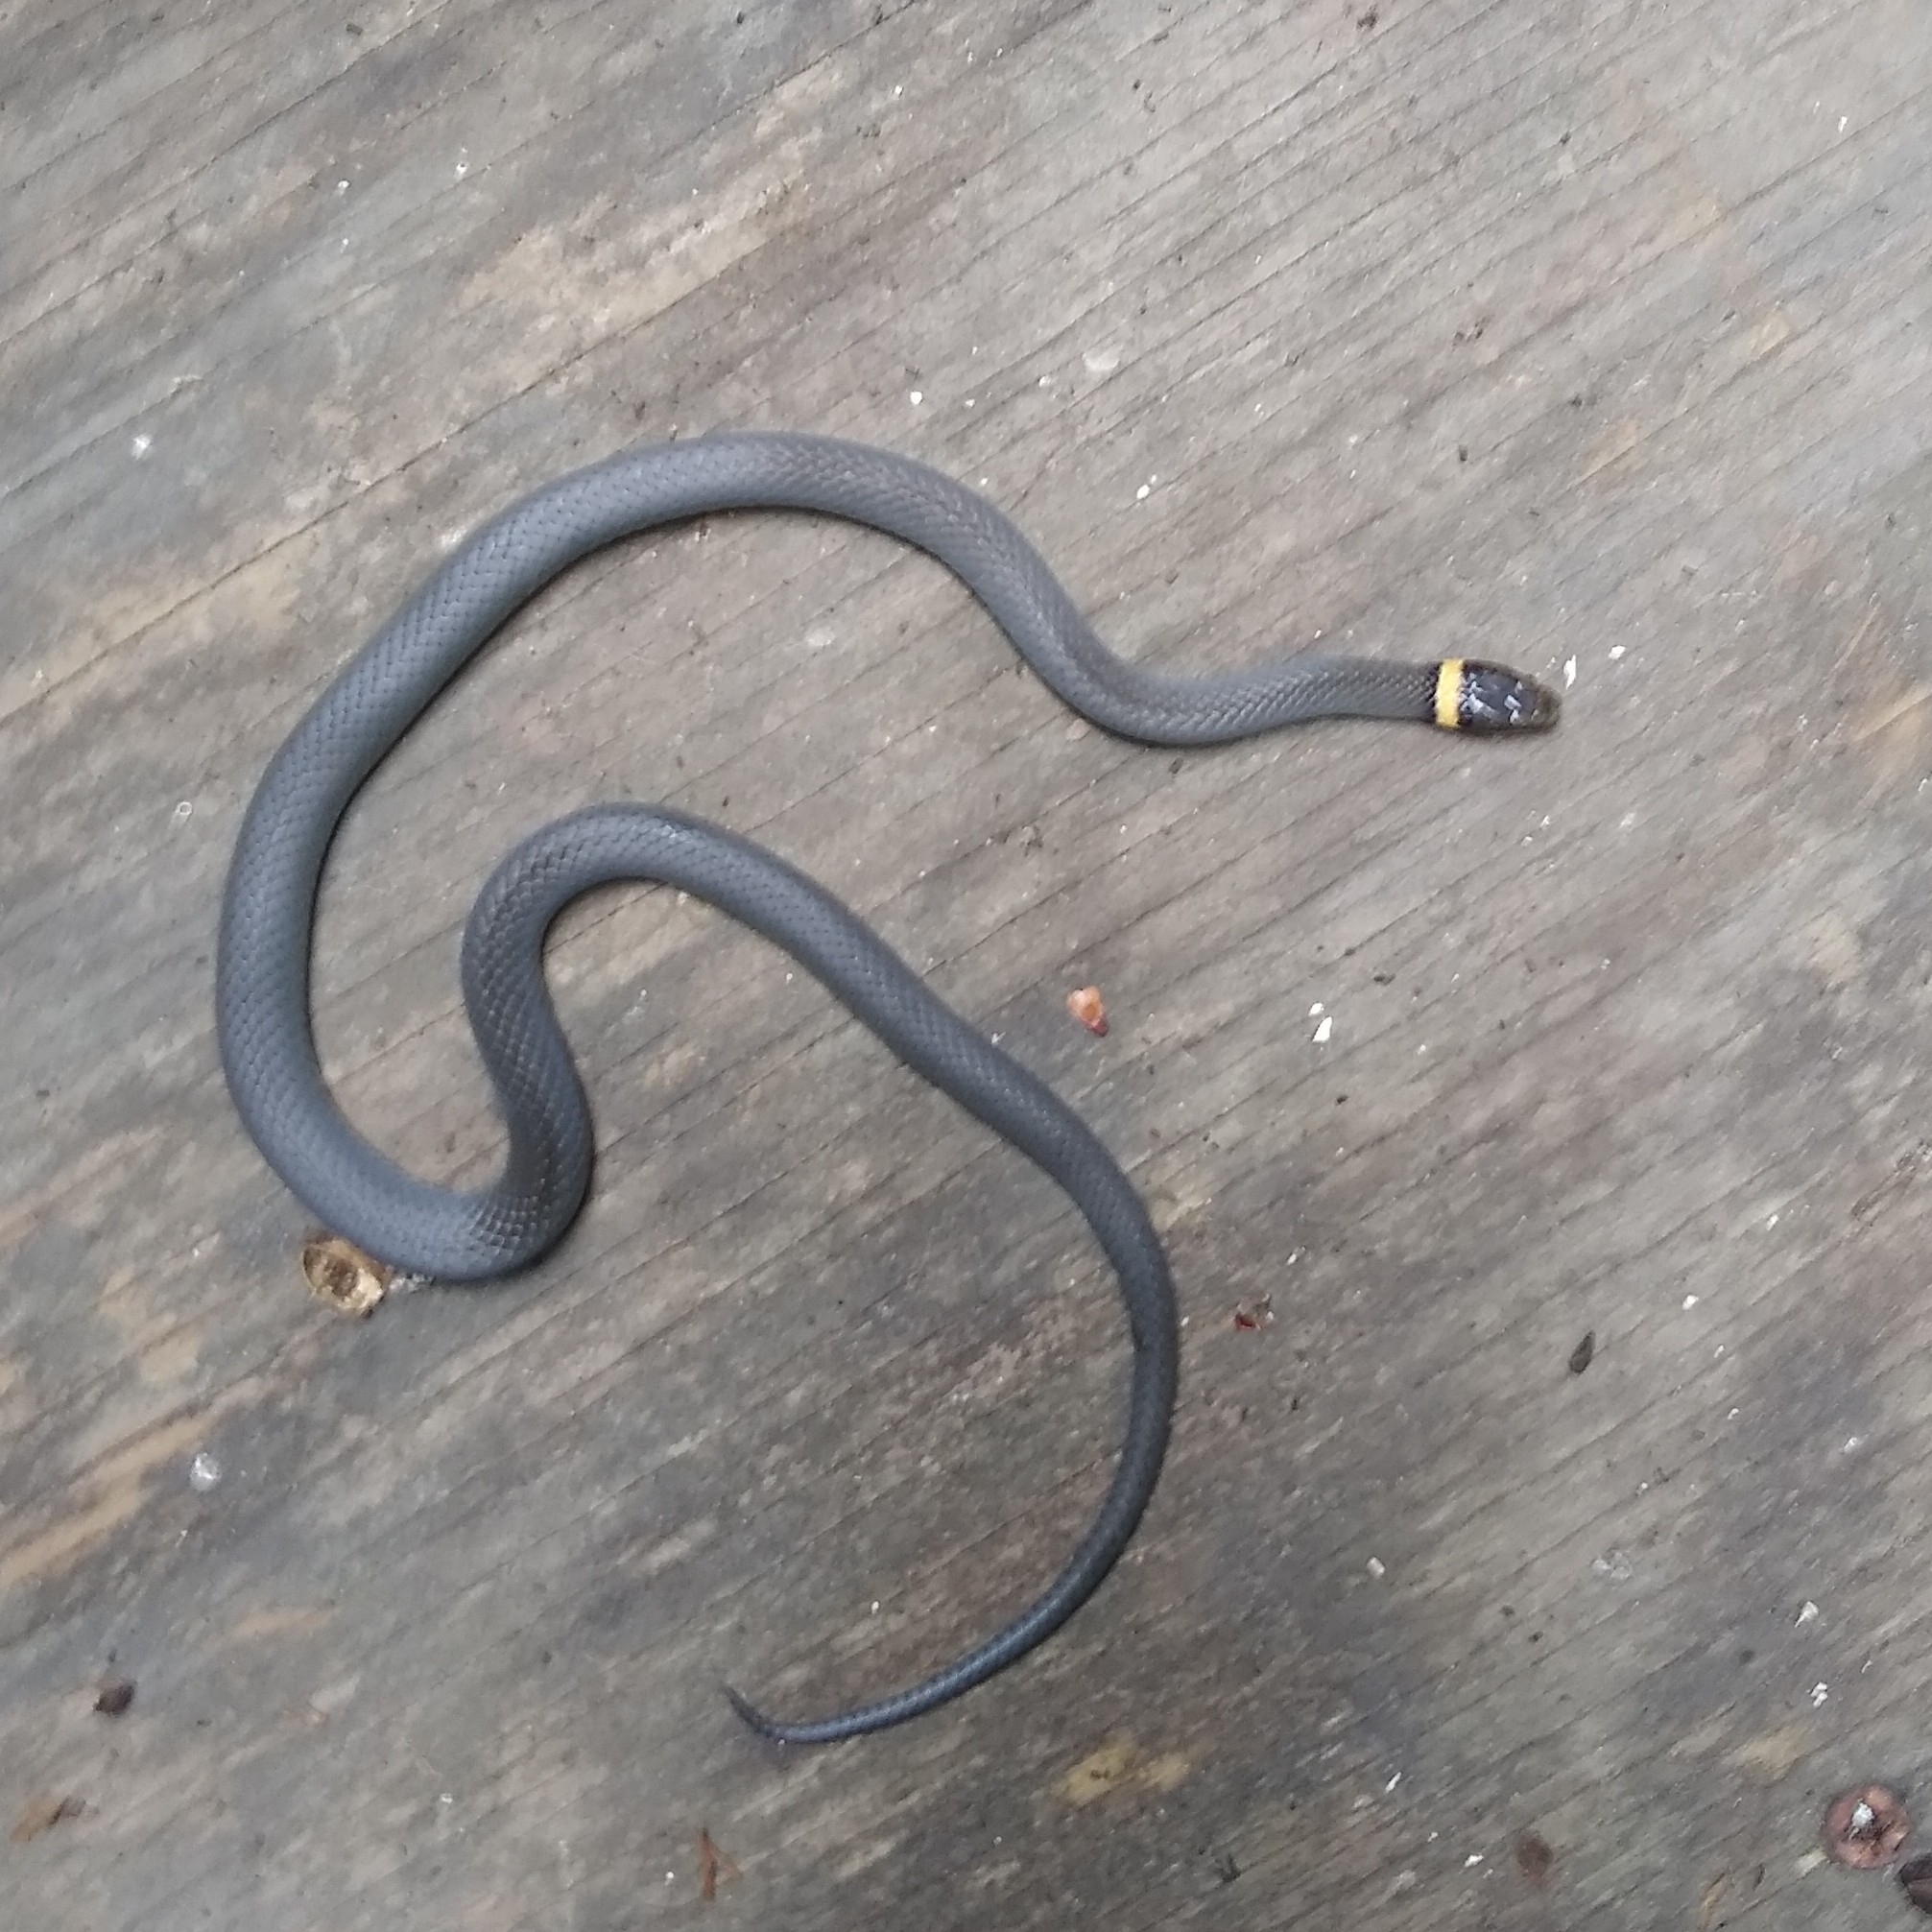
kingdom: Animalia
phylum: Chordata
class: Squamata
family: Colubridae
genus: Diadophis
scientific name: Diadophis punctatus
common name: Ringneck snake
